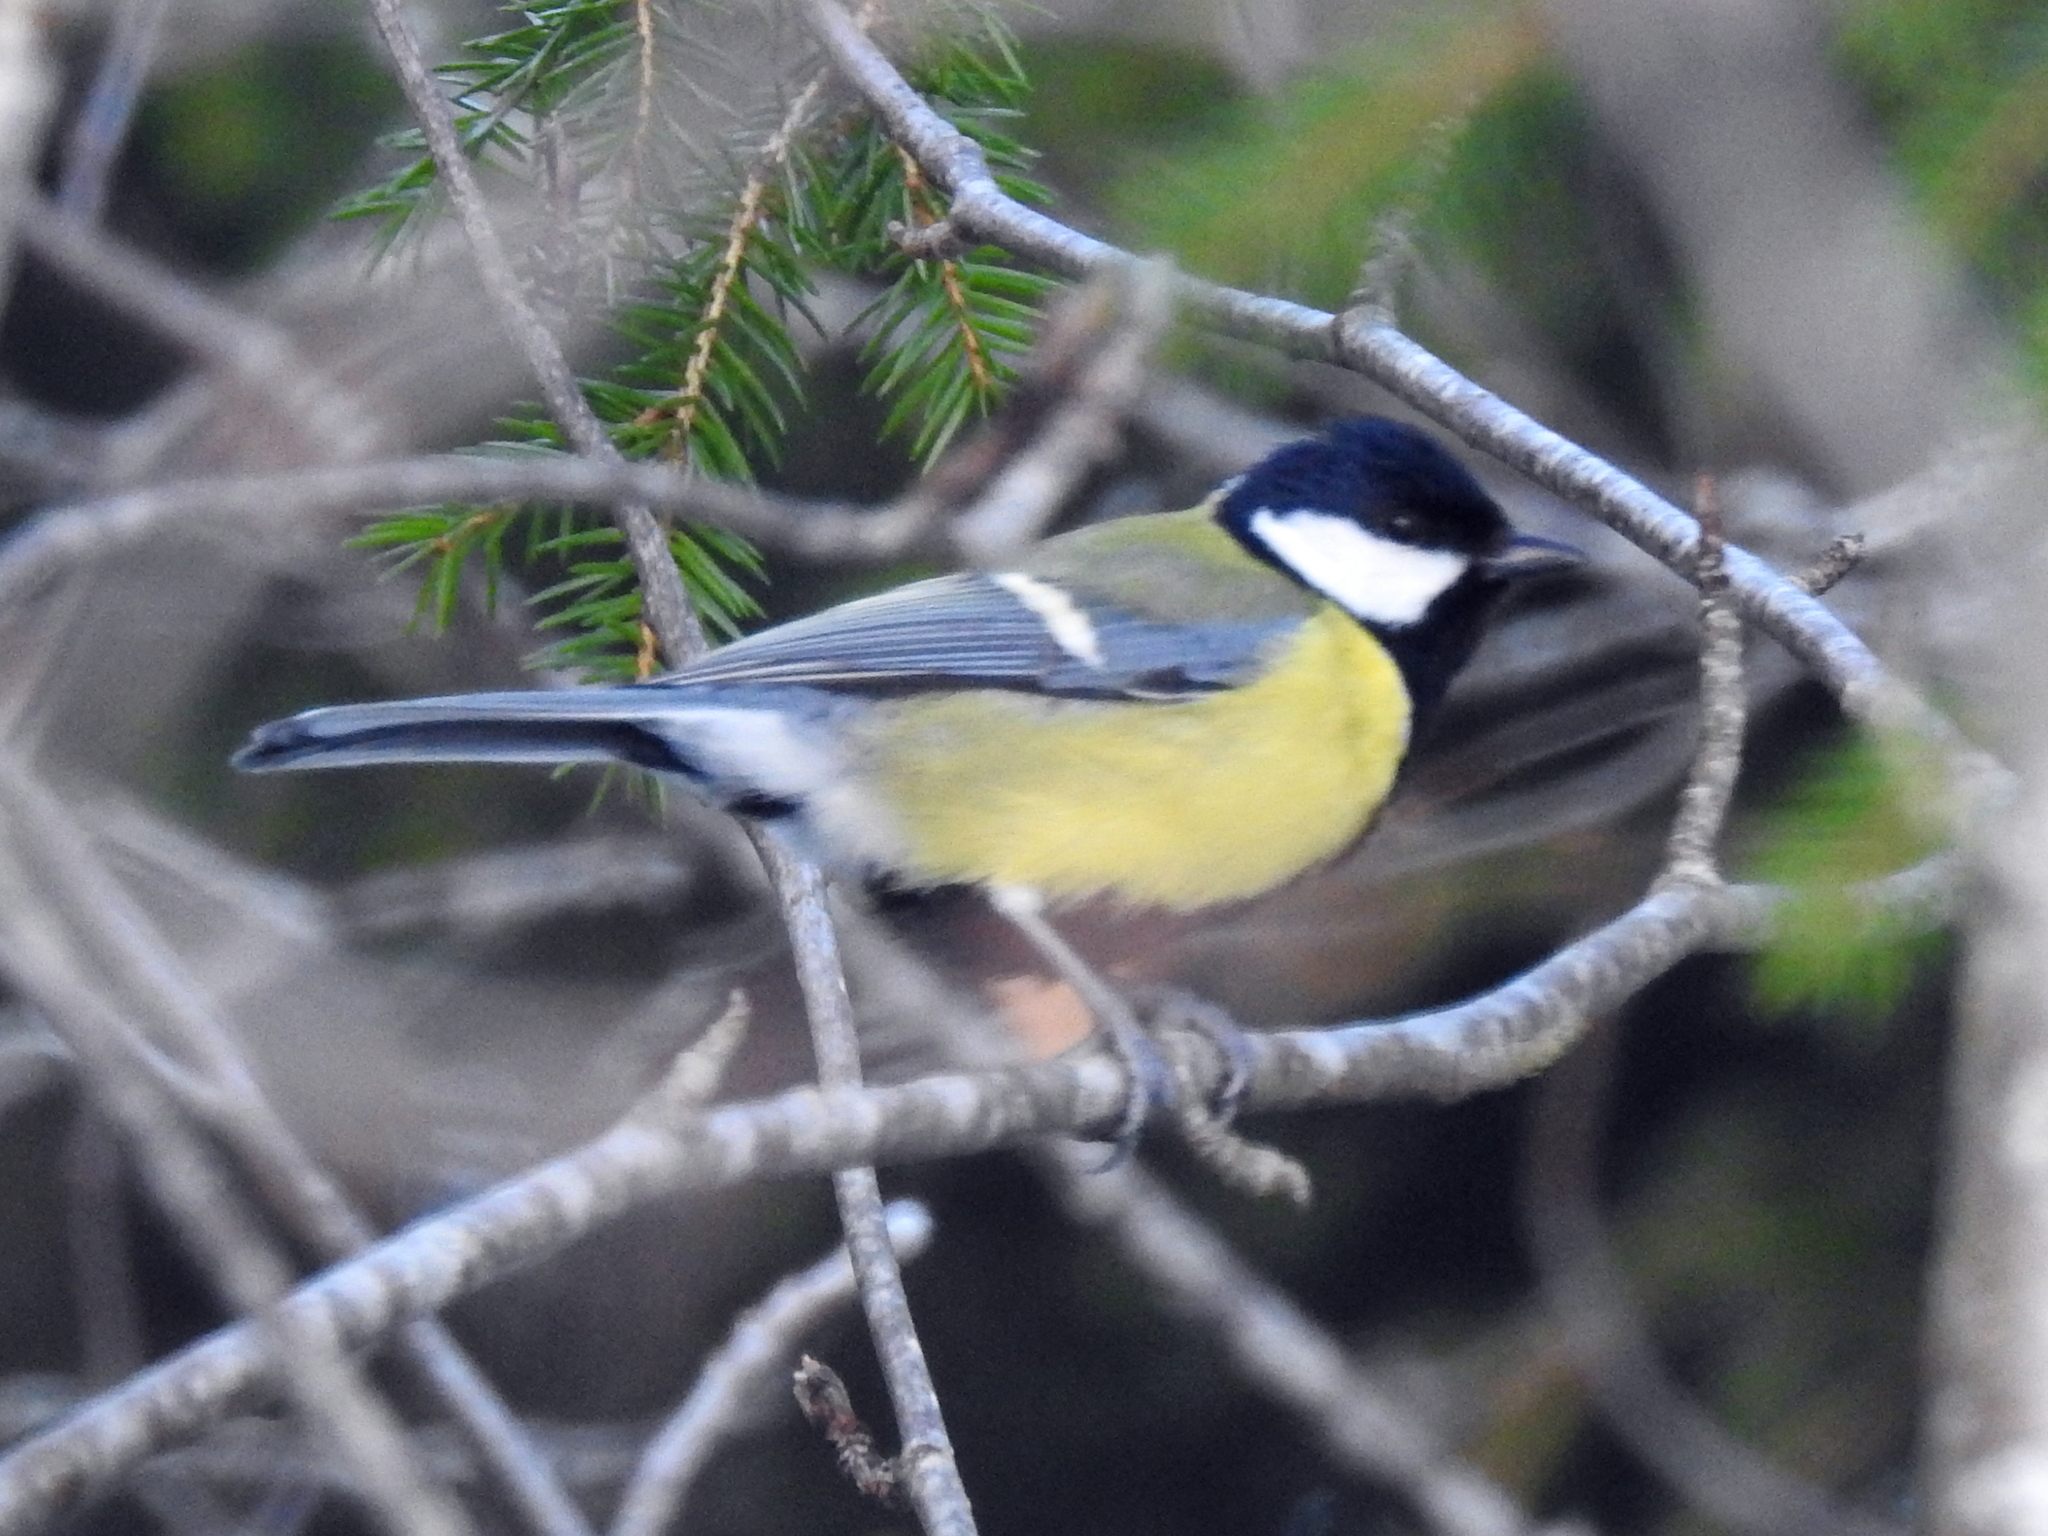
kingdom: Animalia
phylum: Chordata
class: Aves
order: Passeriformes
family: Paridae
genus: Parus
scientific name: Parus major
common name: Great tit
